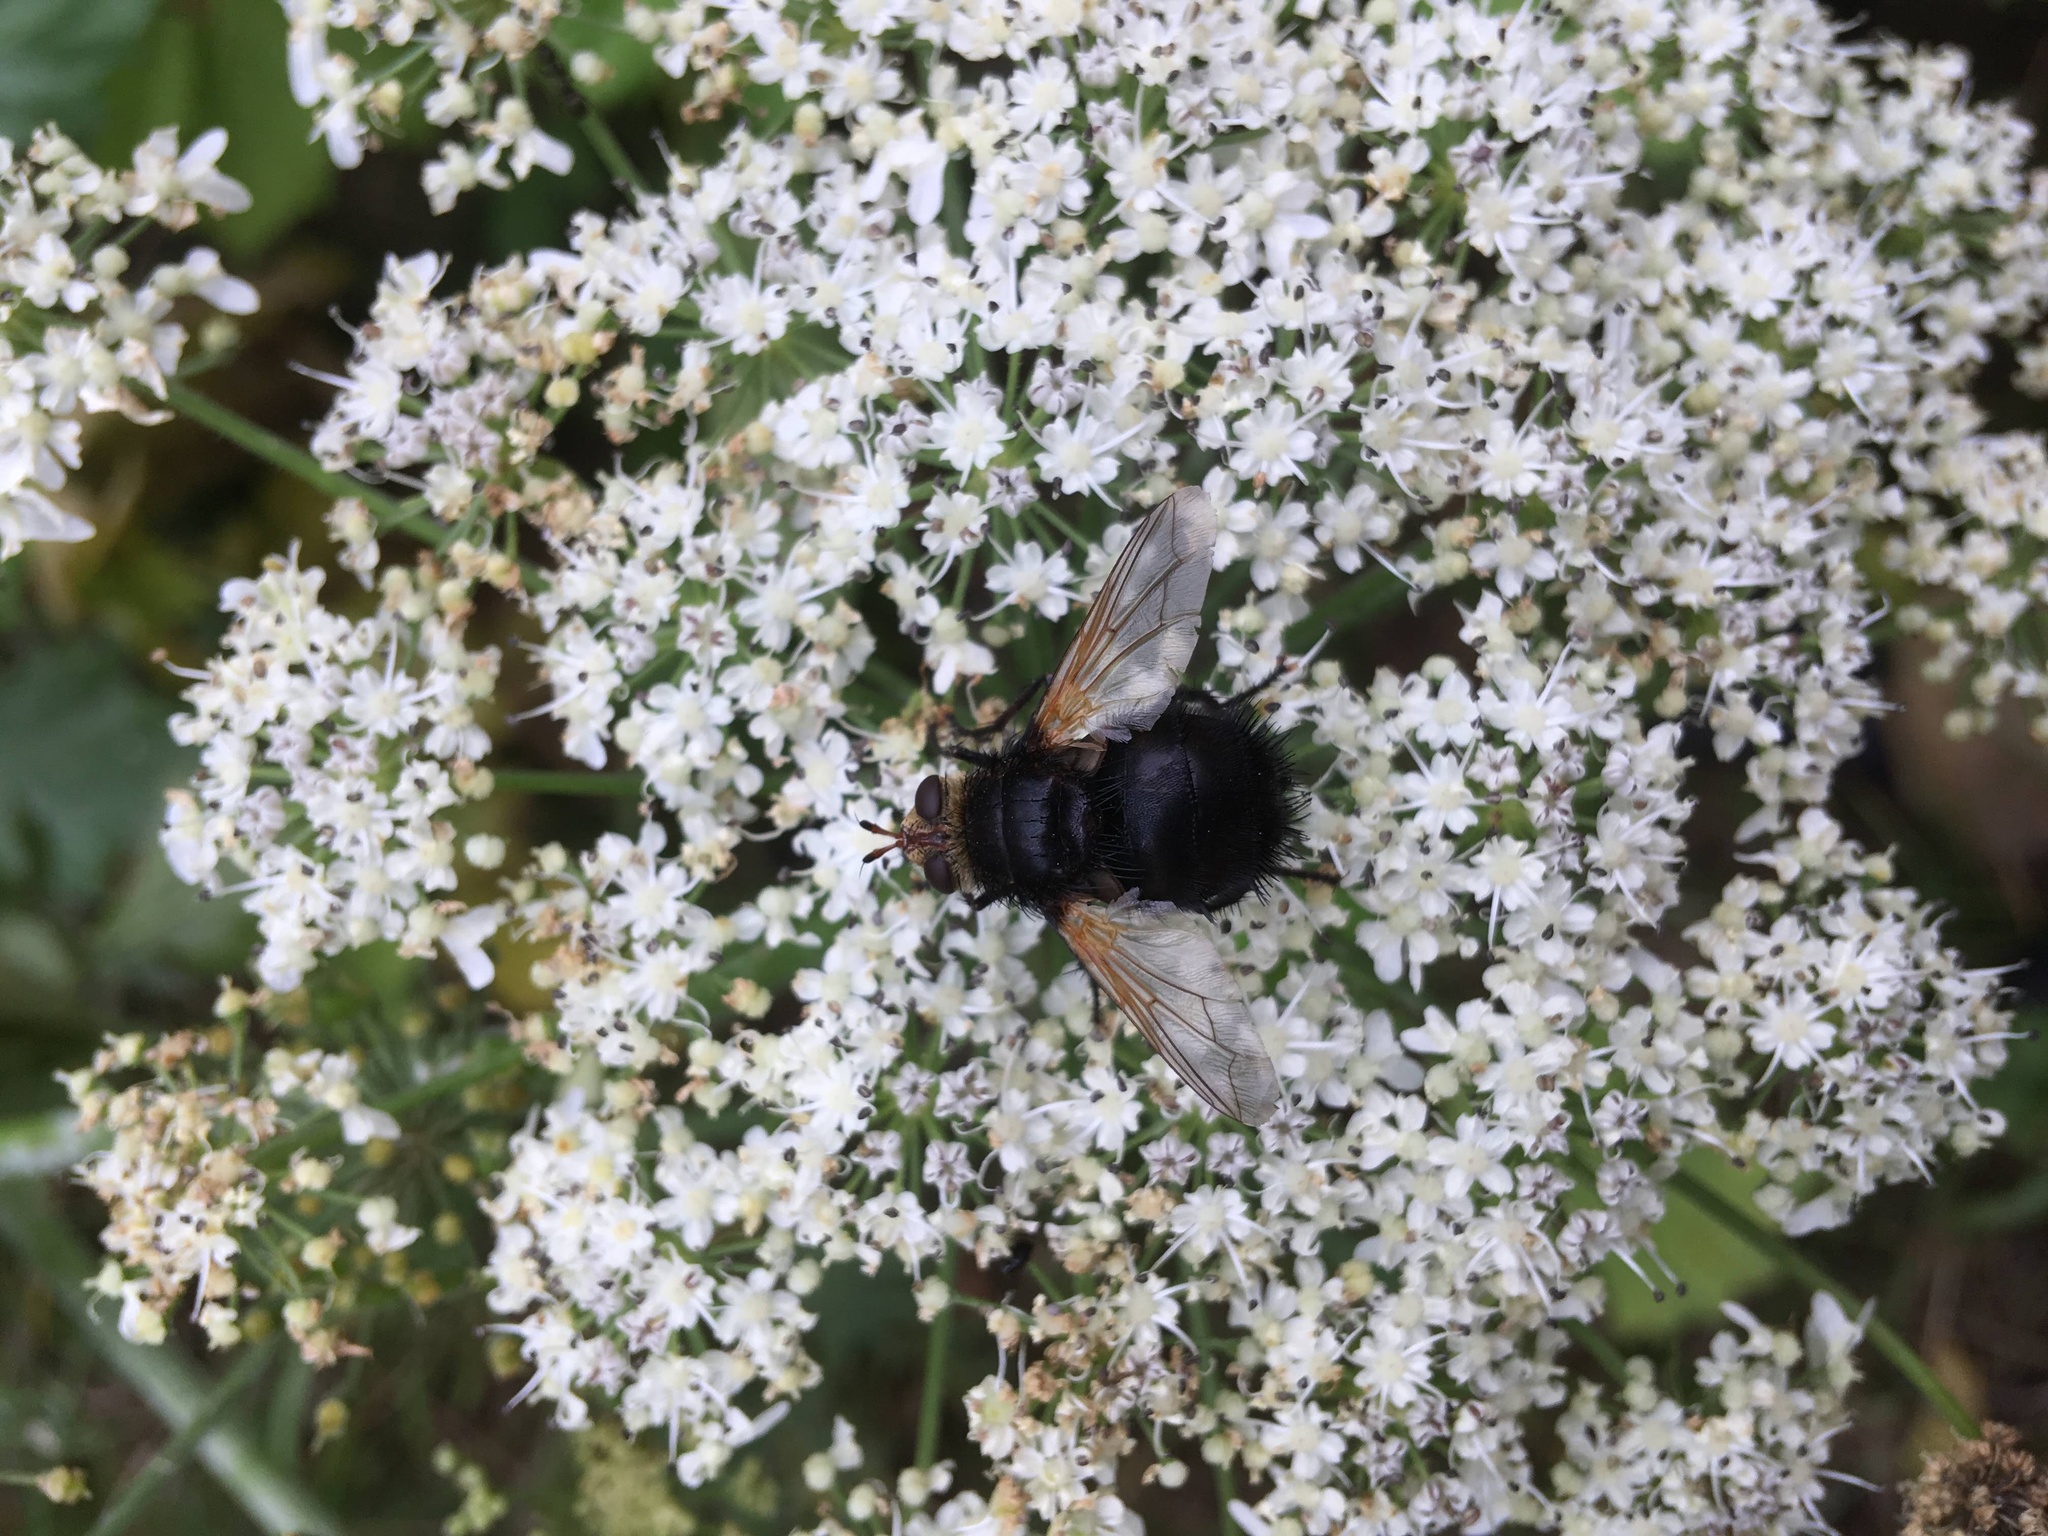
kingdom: Animalia
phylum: Arthropoda
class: Insecta
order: Diptera
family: Tachinidae
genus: Tachina
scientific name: Tachina grossa
